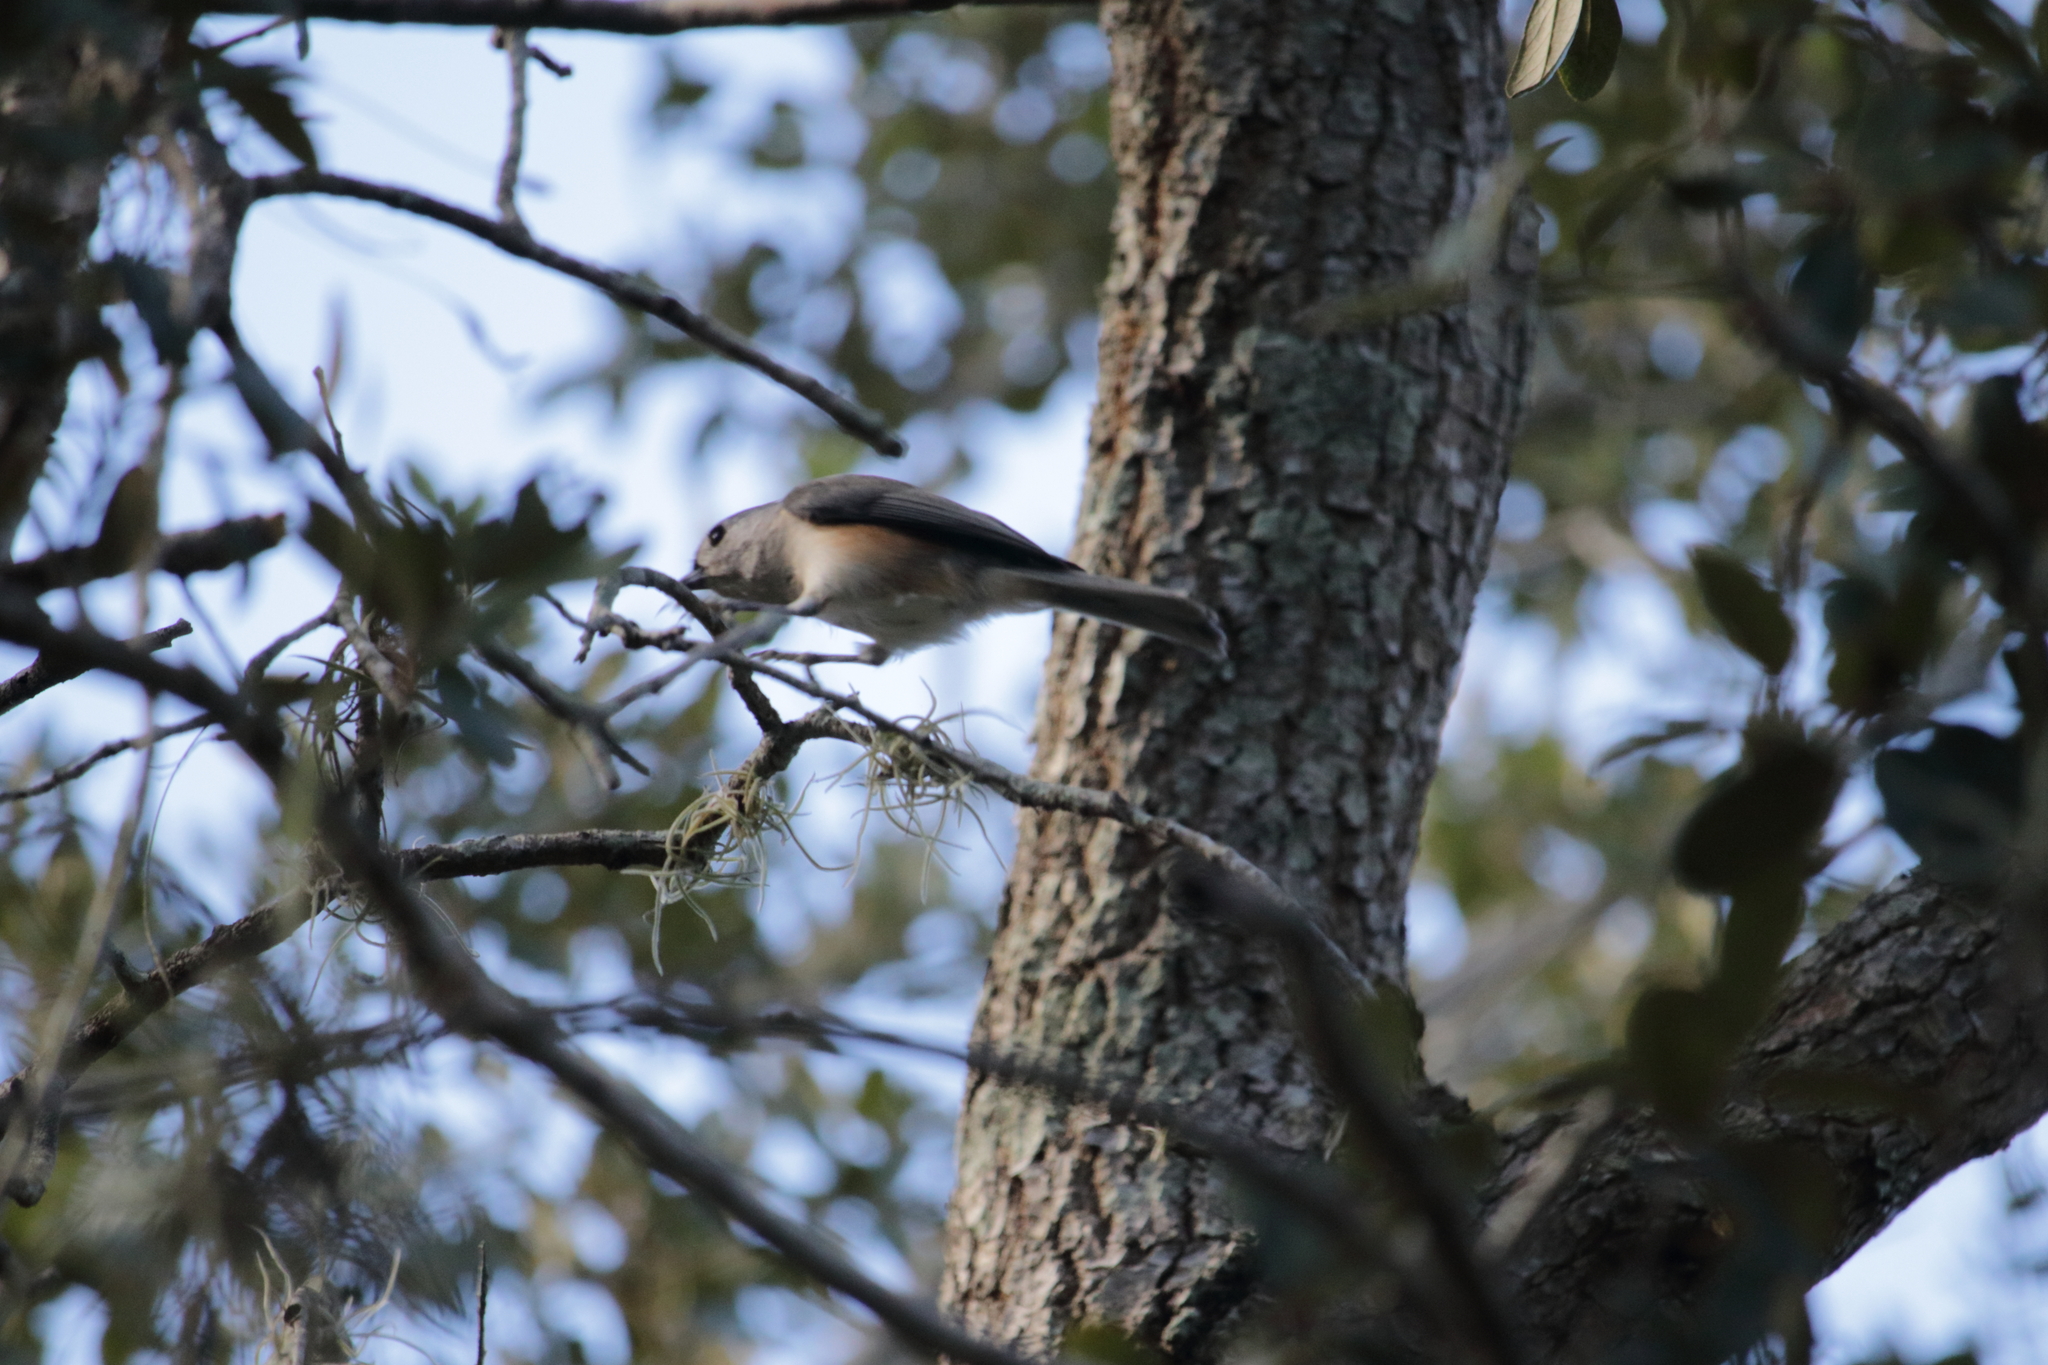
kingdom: Animalia
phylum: Chordata
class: Aves
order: Passeriformes
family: Paridae
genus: Baeolophus
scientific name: Baeolophus bicolor
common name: Tufted titmouse
